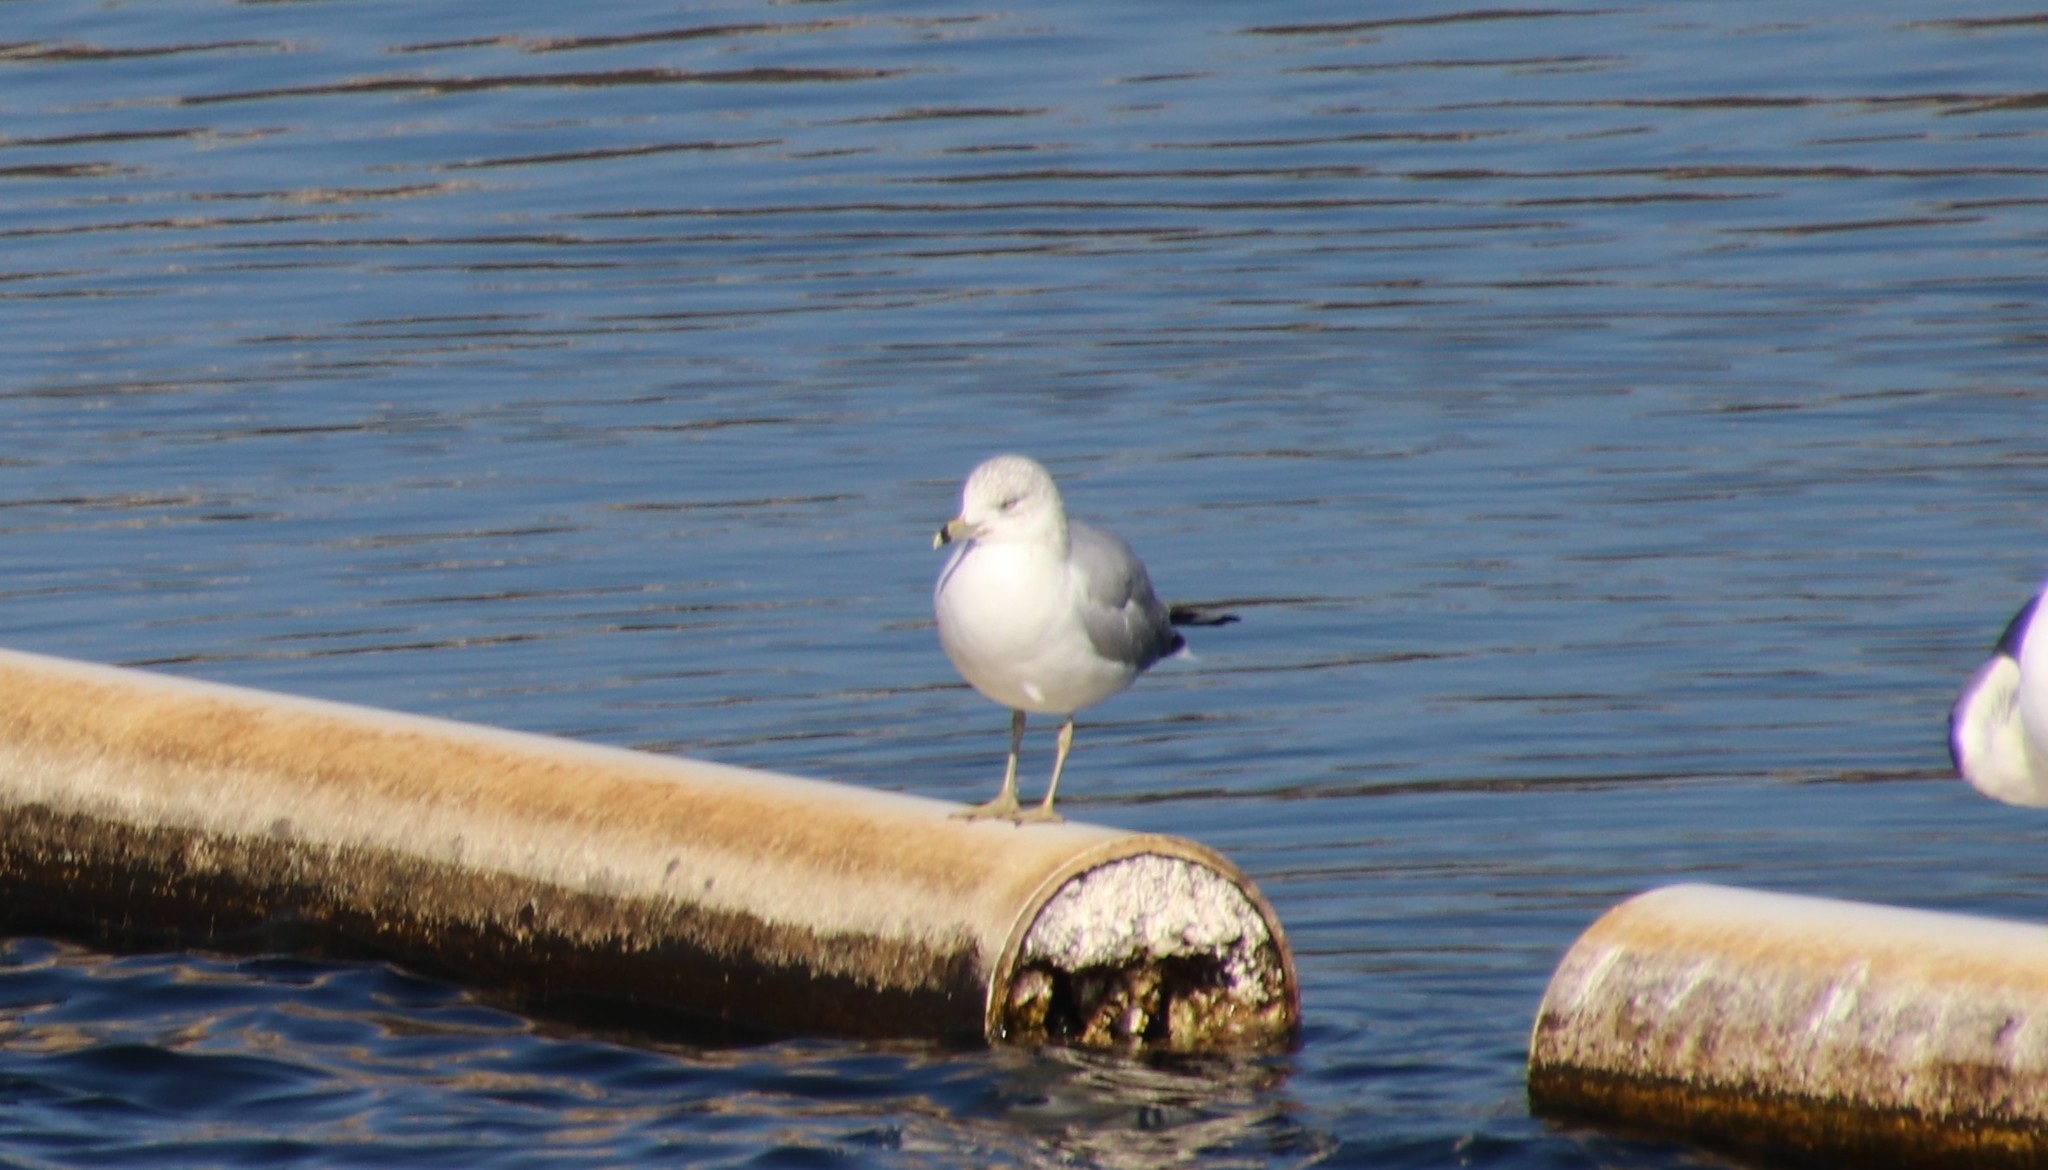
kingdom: Animalia
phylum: Chordata
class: Aves
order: Charadriiformes
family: Laridae
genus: Larus
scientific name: Larus delawarensis
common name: Ring-billed gull
